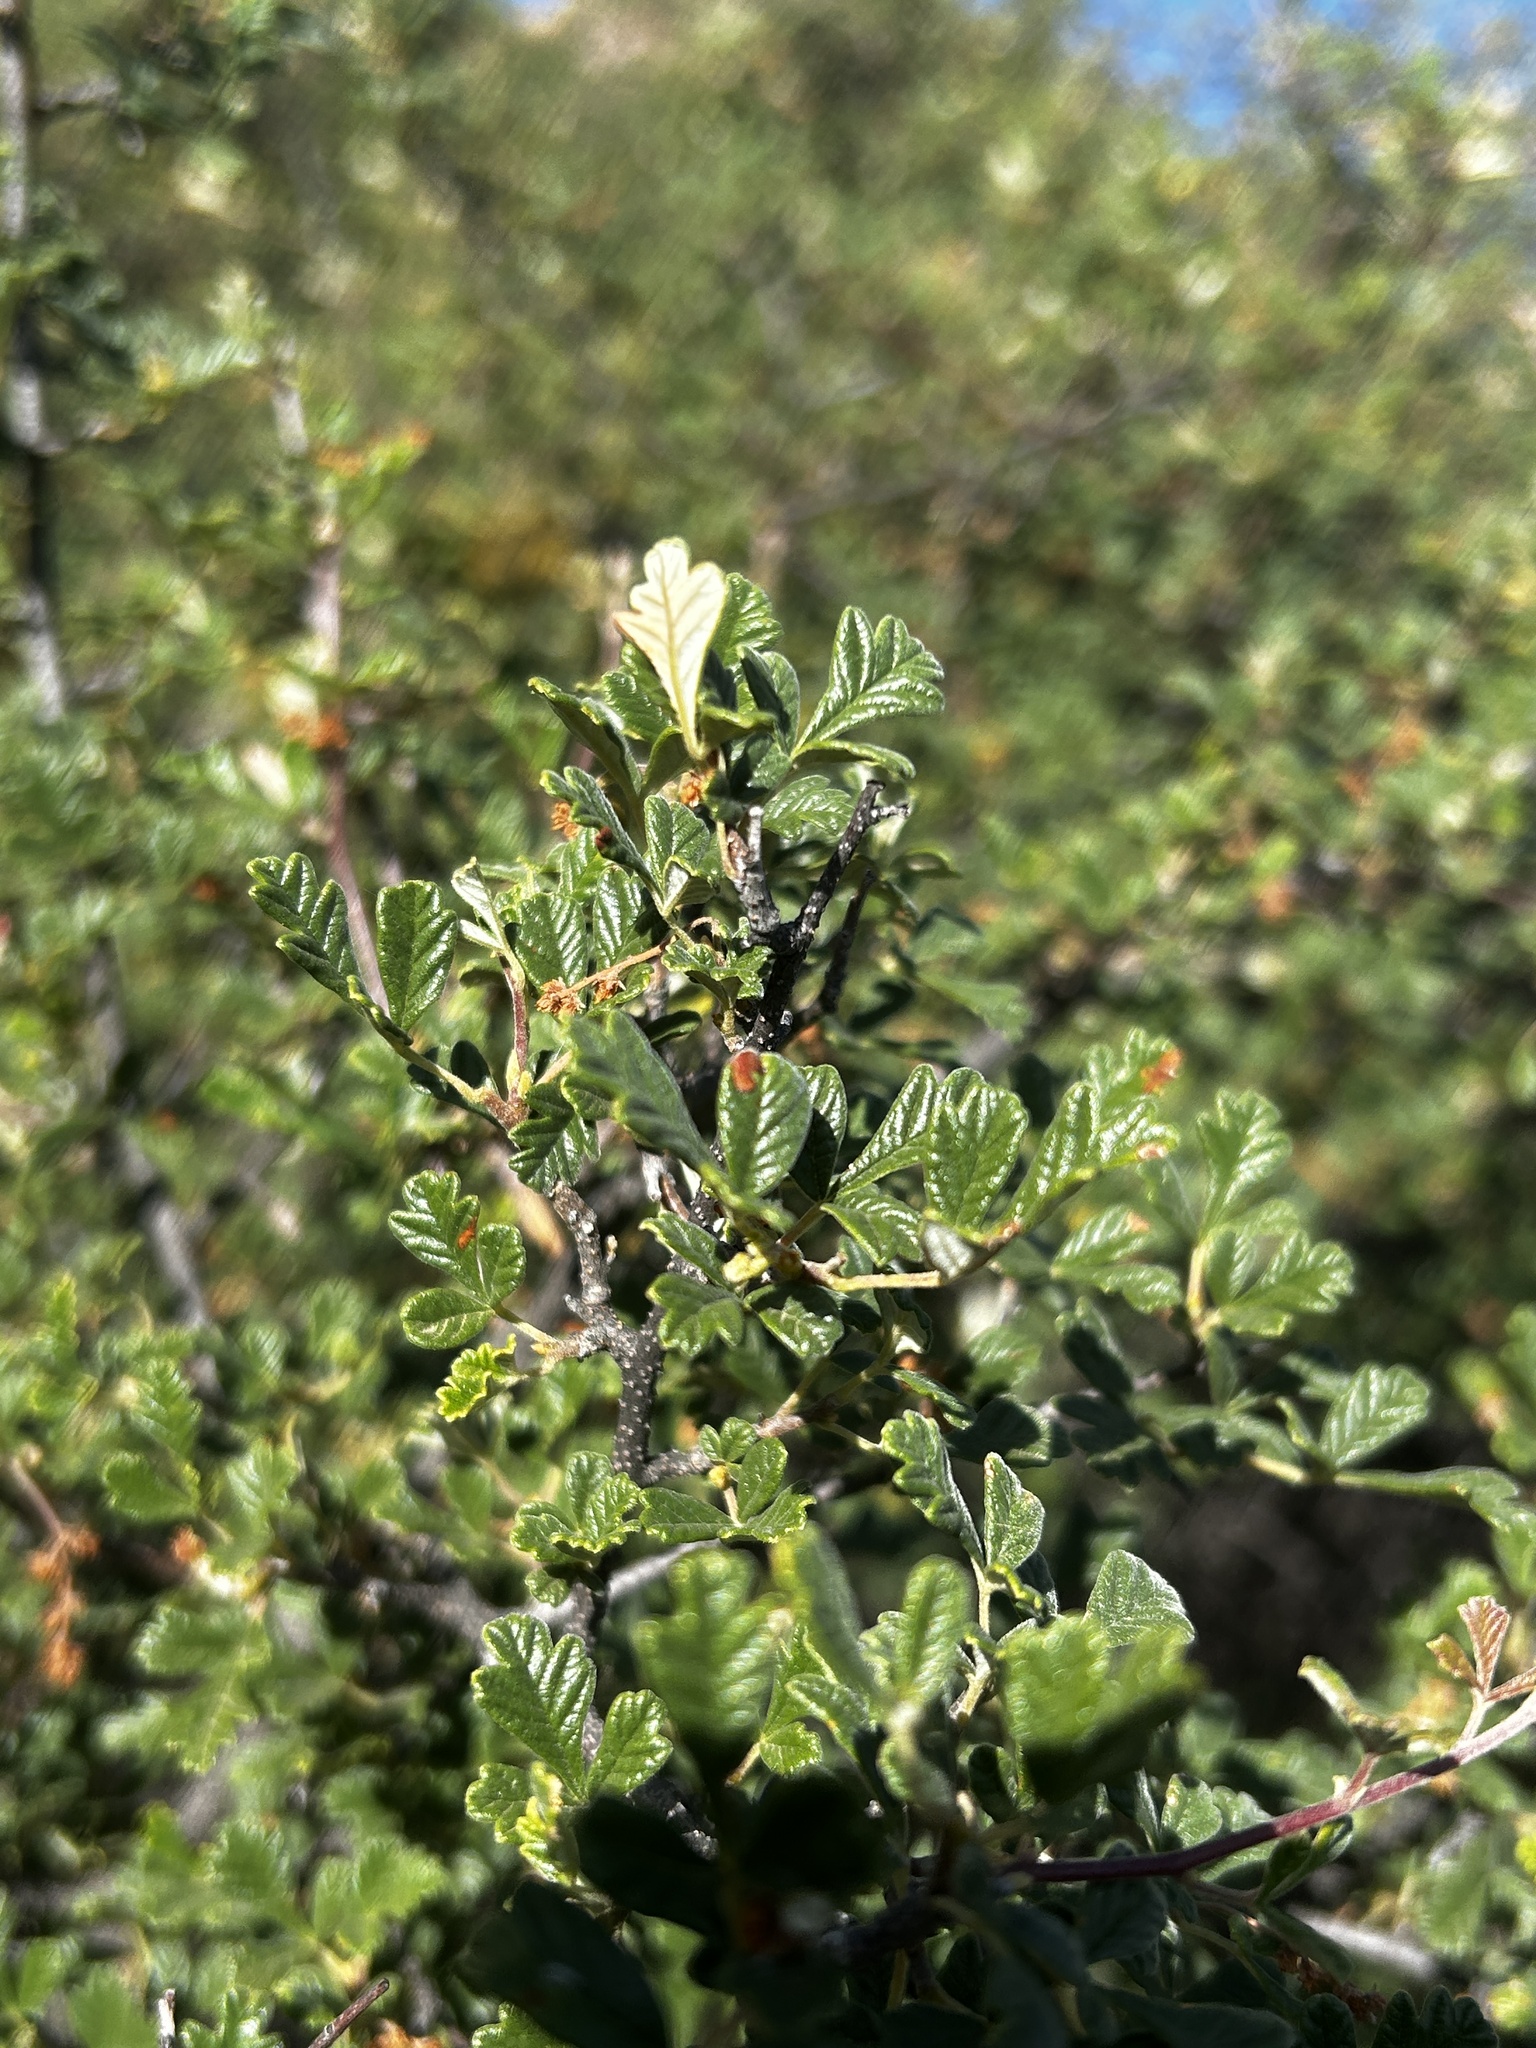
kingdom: Plantae
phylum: Tracheophyta
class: Magnoliopsida
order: Sapindales
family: Anacardiaceae
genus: Searsia
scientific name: Searsia incisa
